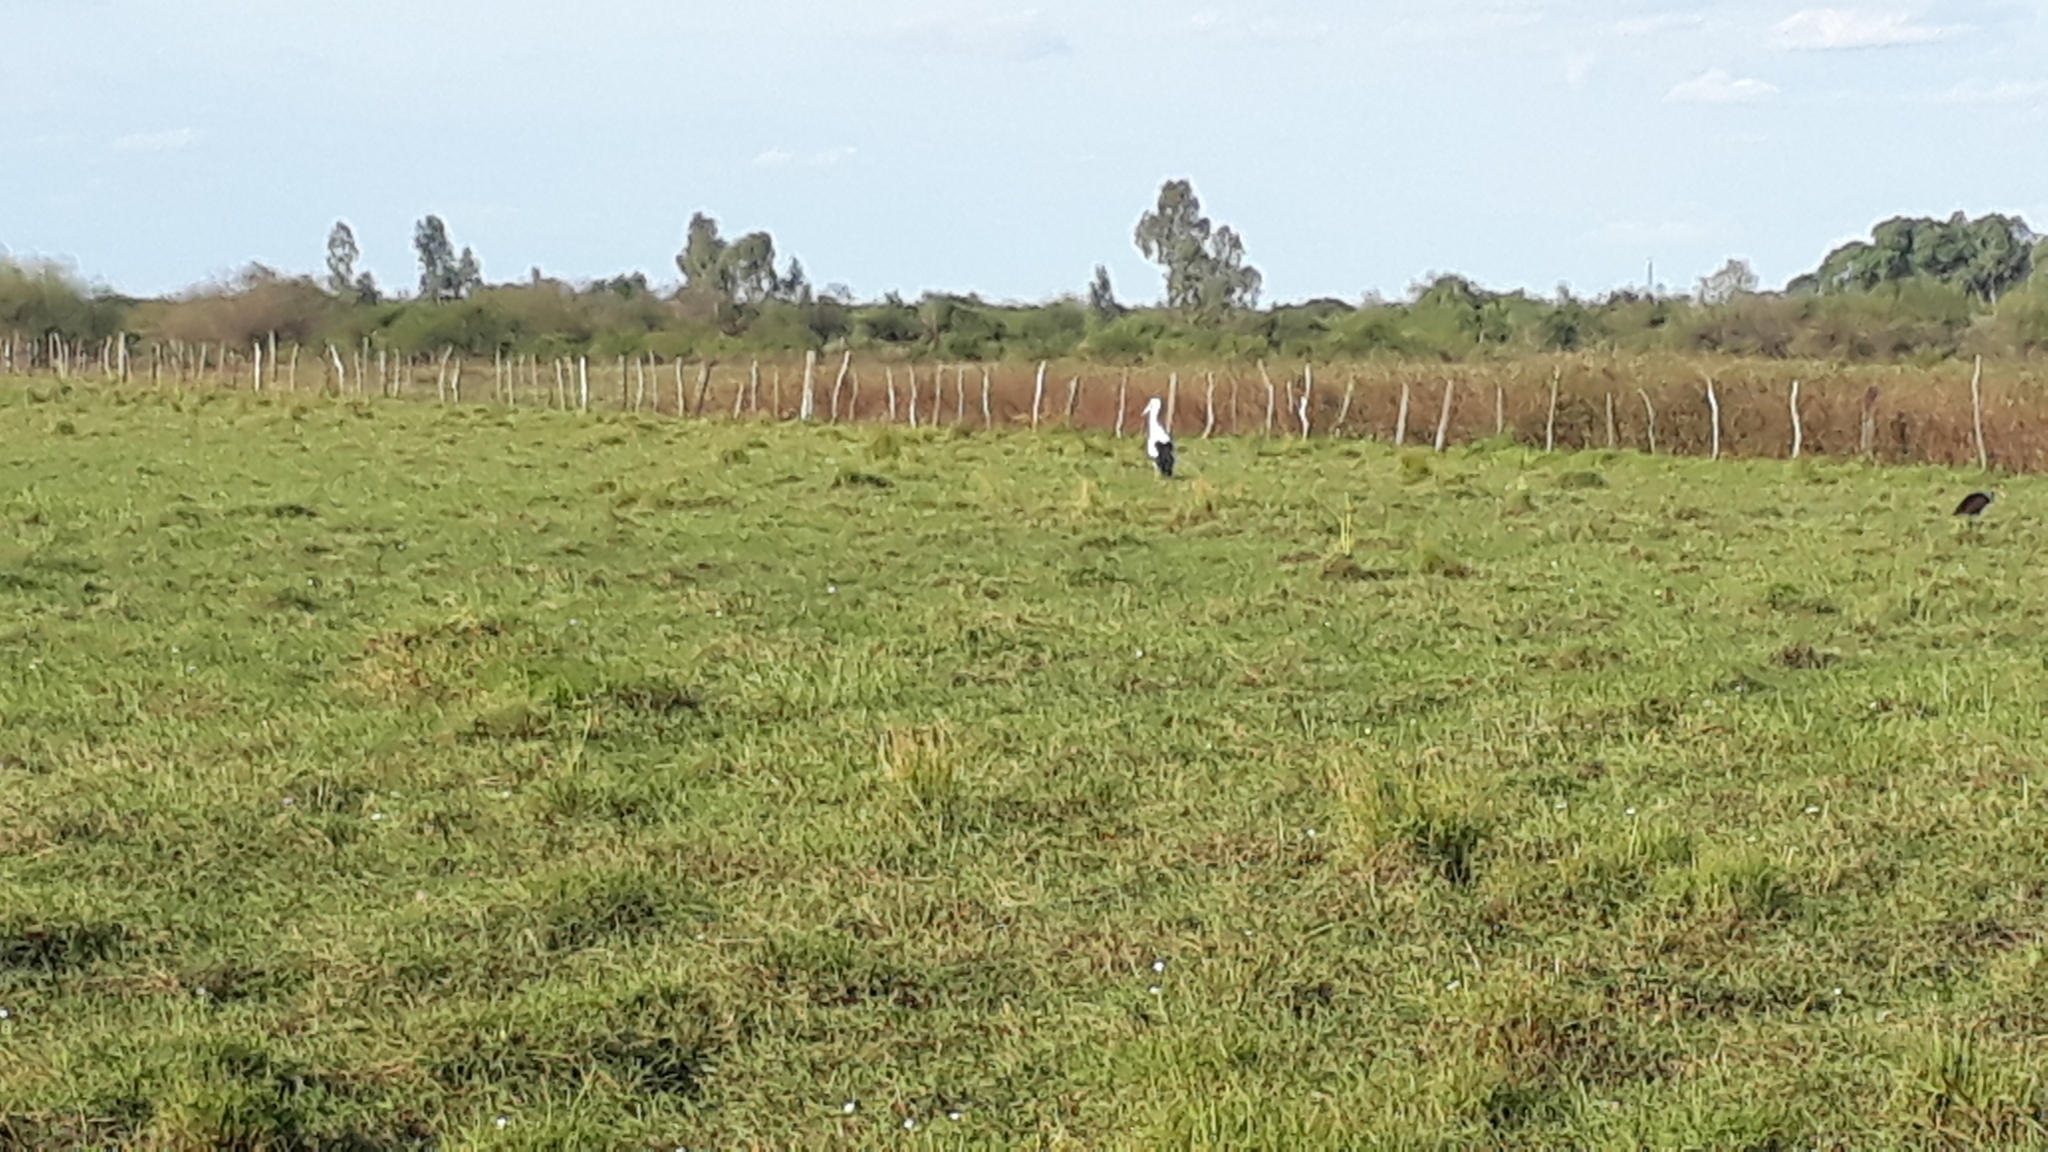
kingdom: Animalia
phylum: Chordata
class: Aves
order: Ciconiiformes
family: Ciconiidae
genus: Ciconia
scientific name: Ciconia maguari
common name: Maguari stork
